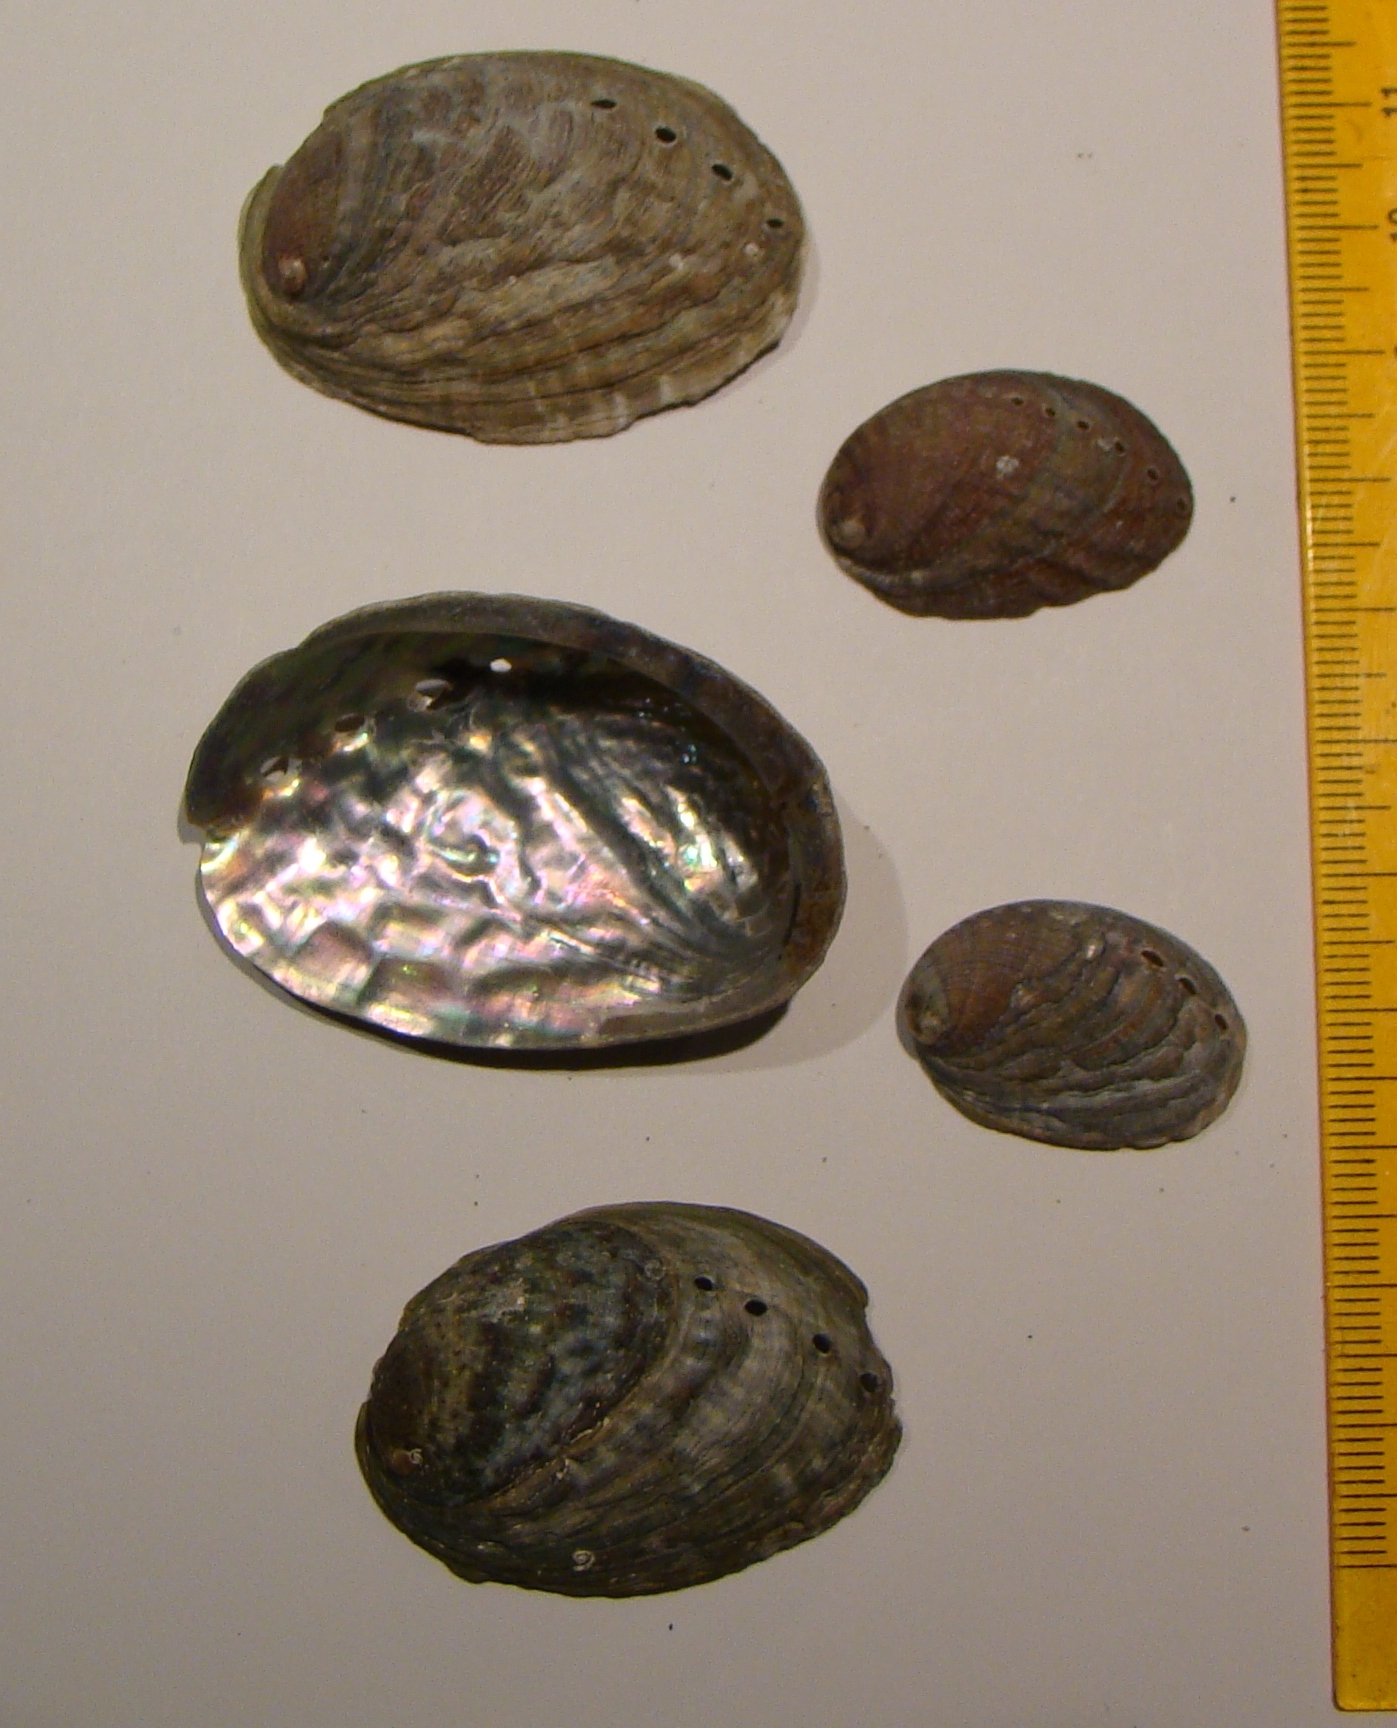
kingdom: Animalia
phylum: Mollusca
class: Gastropoda
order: Lepetellida
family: Haliotidae
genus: Haliotis
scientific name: Haliotis virginea
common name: Whitefoot paua
